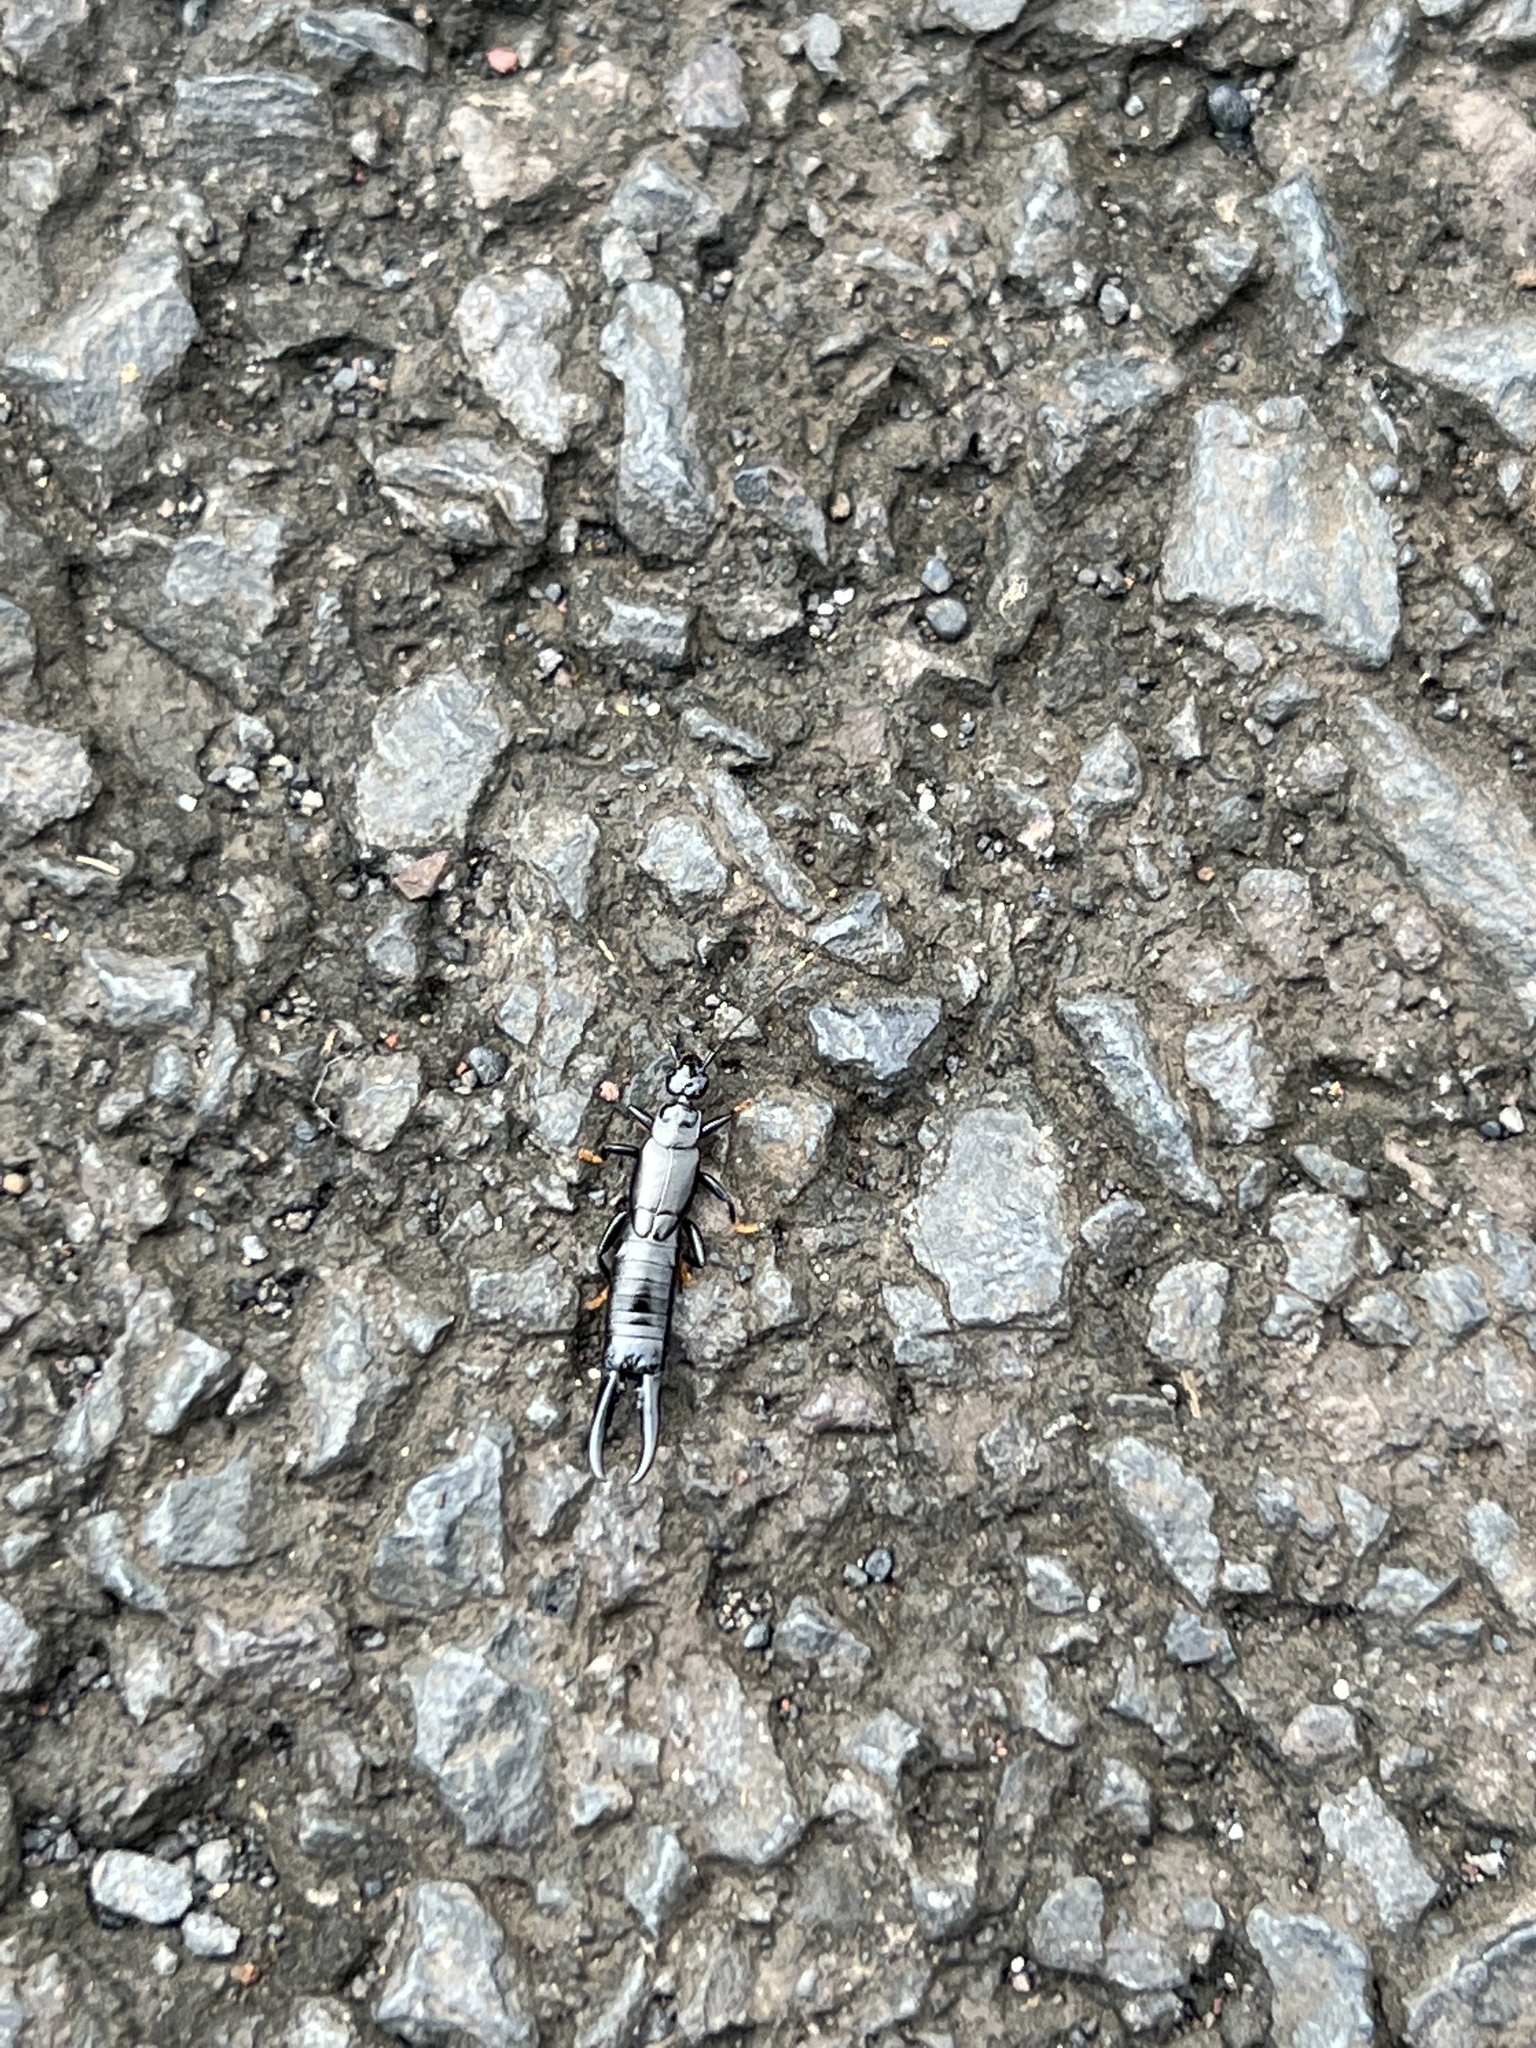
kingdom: Animalia
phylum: Arthropoda
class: Insecta
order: Dermaptera
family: Chelisochidae
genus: Chelisoches
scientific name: Chelisoches morio
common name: Black earwig
